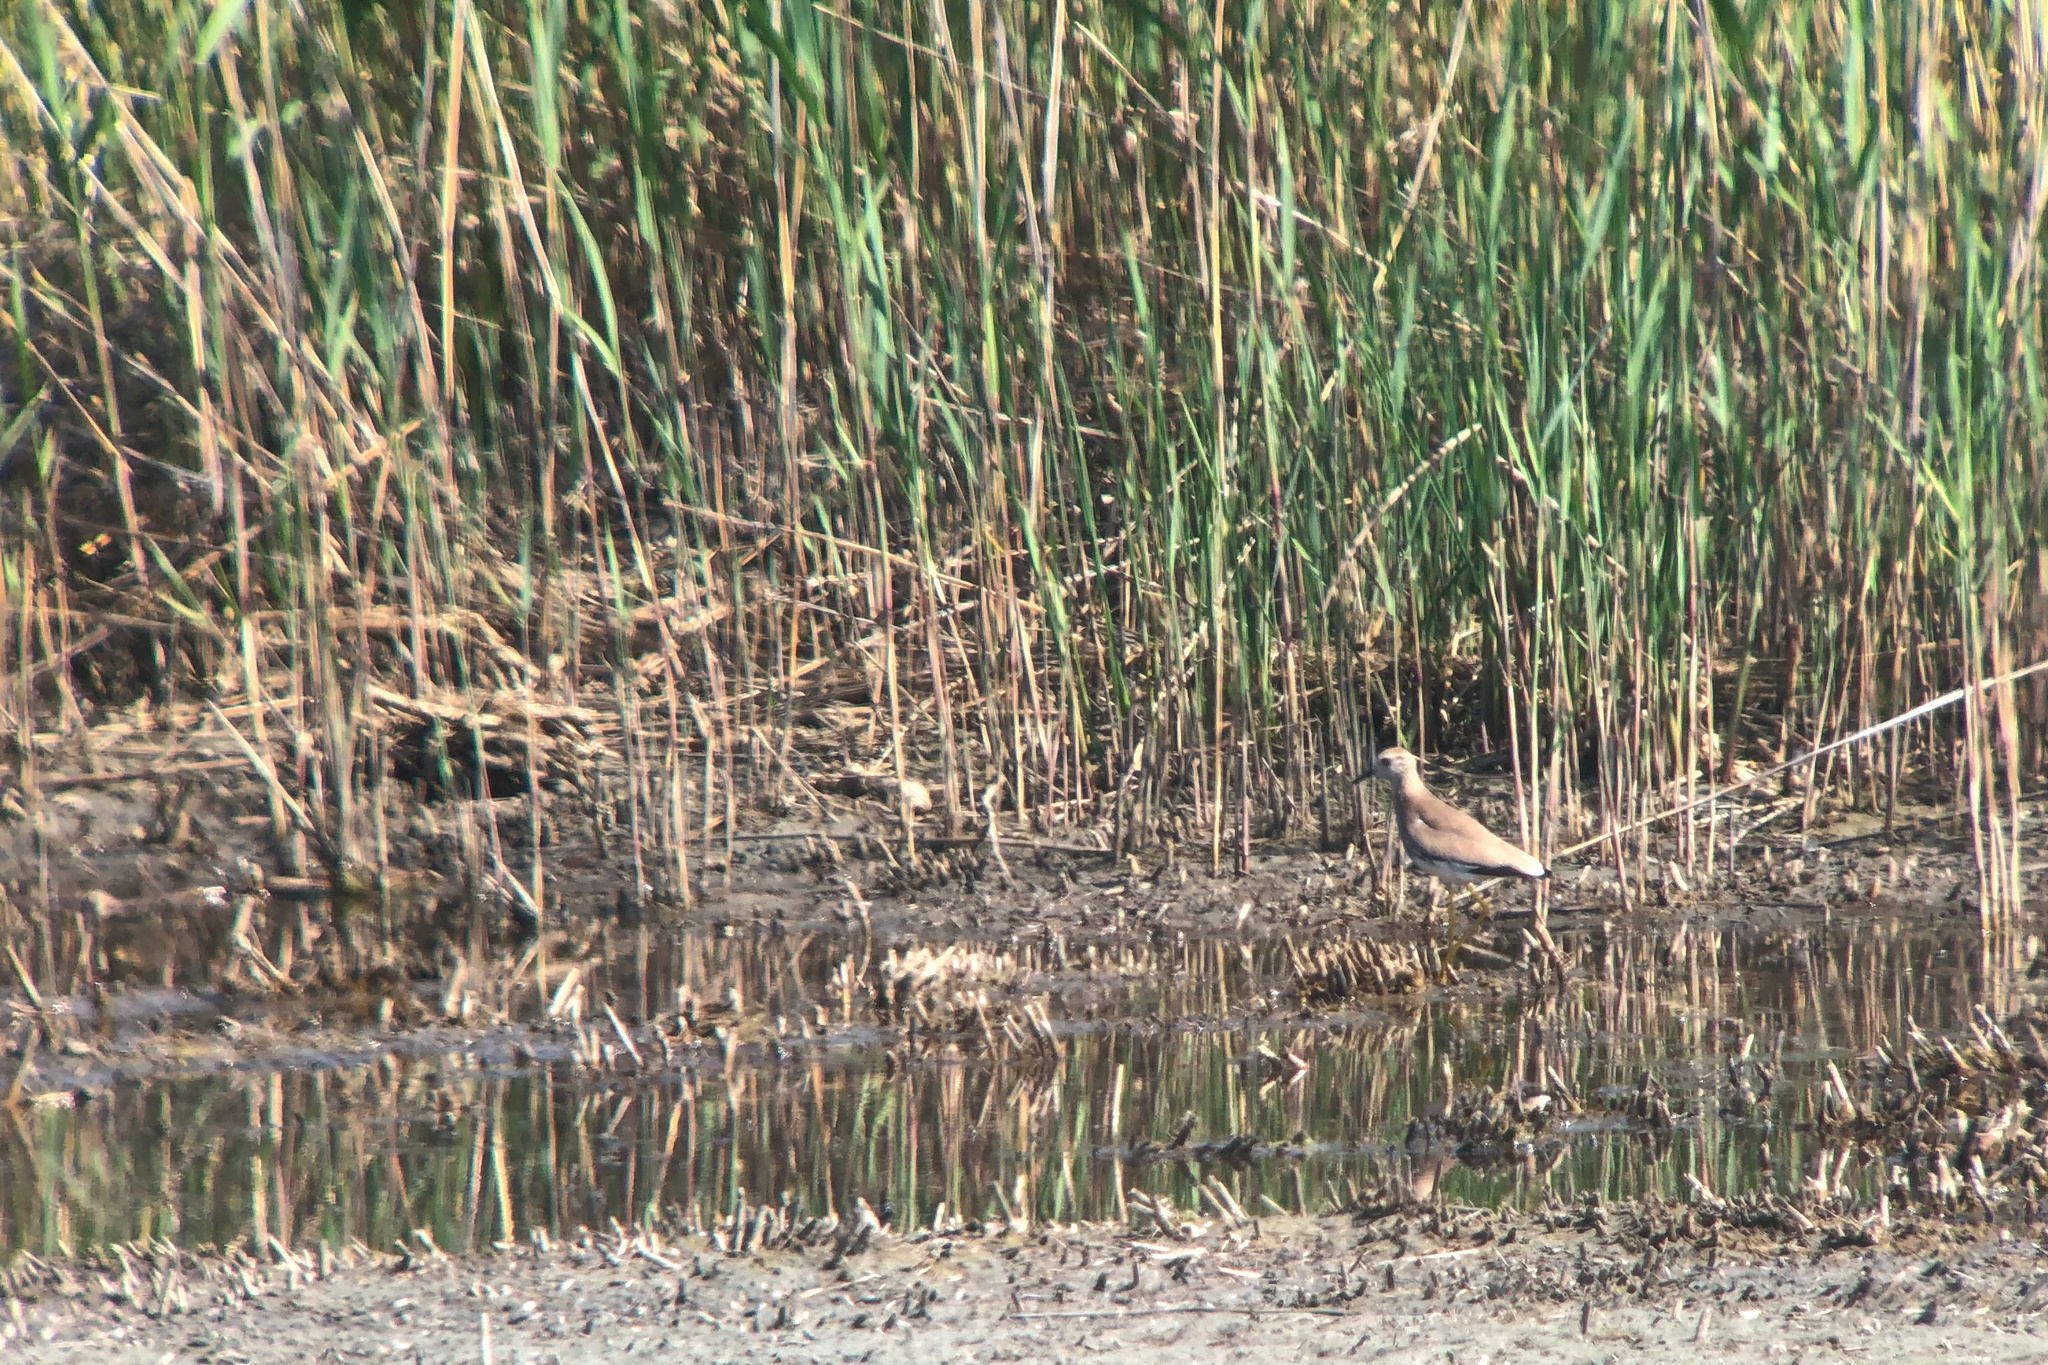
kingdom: Animalia
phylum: Chordata
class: Aves
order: Charadriiformes
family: Charadriidae
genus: Vanellus
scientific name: Vanellus leucurus
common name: White-tailed lapwing
